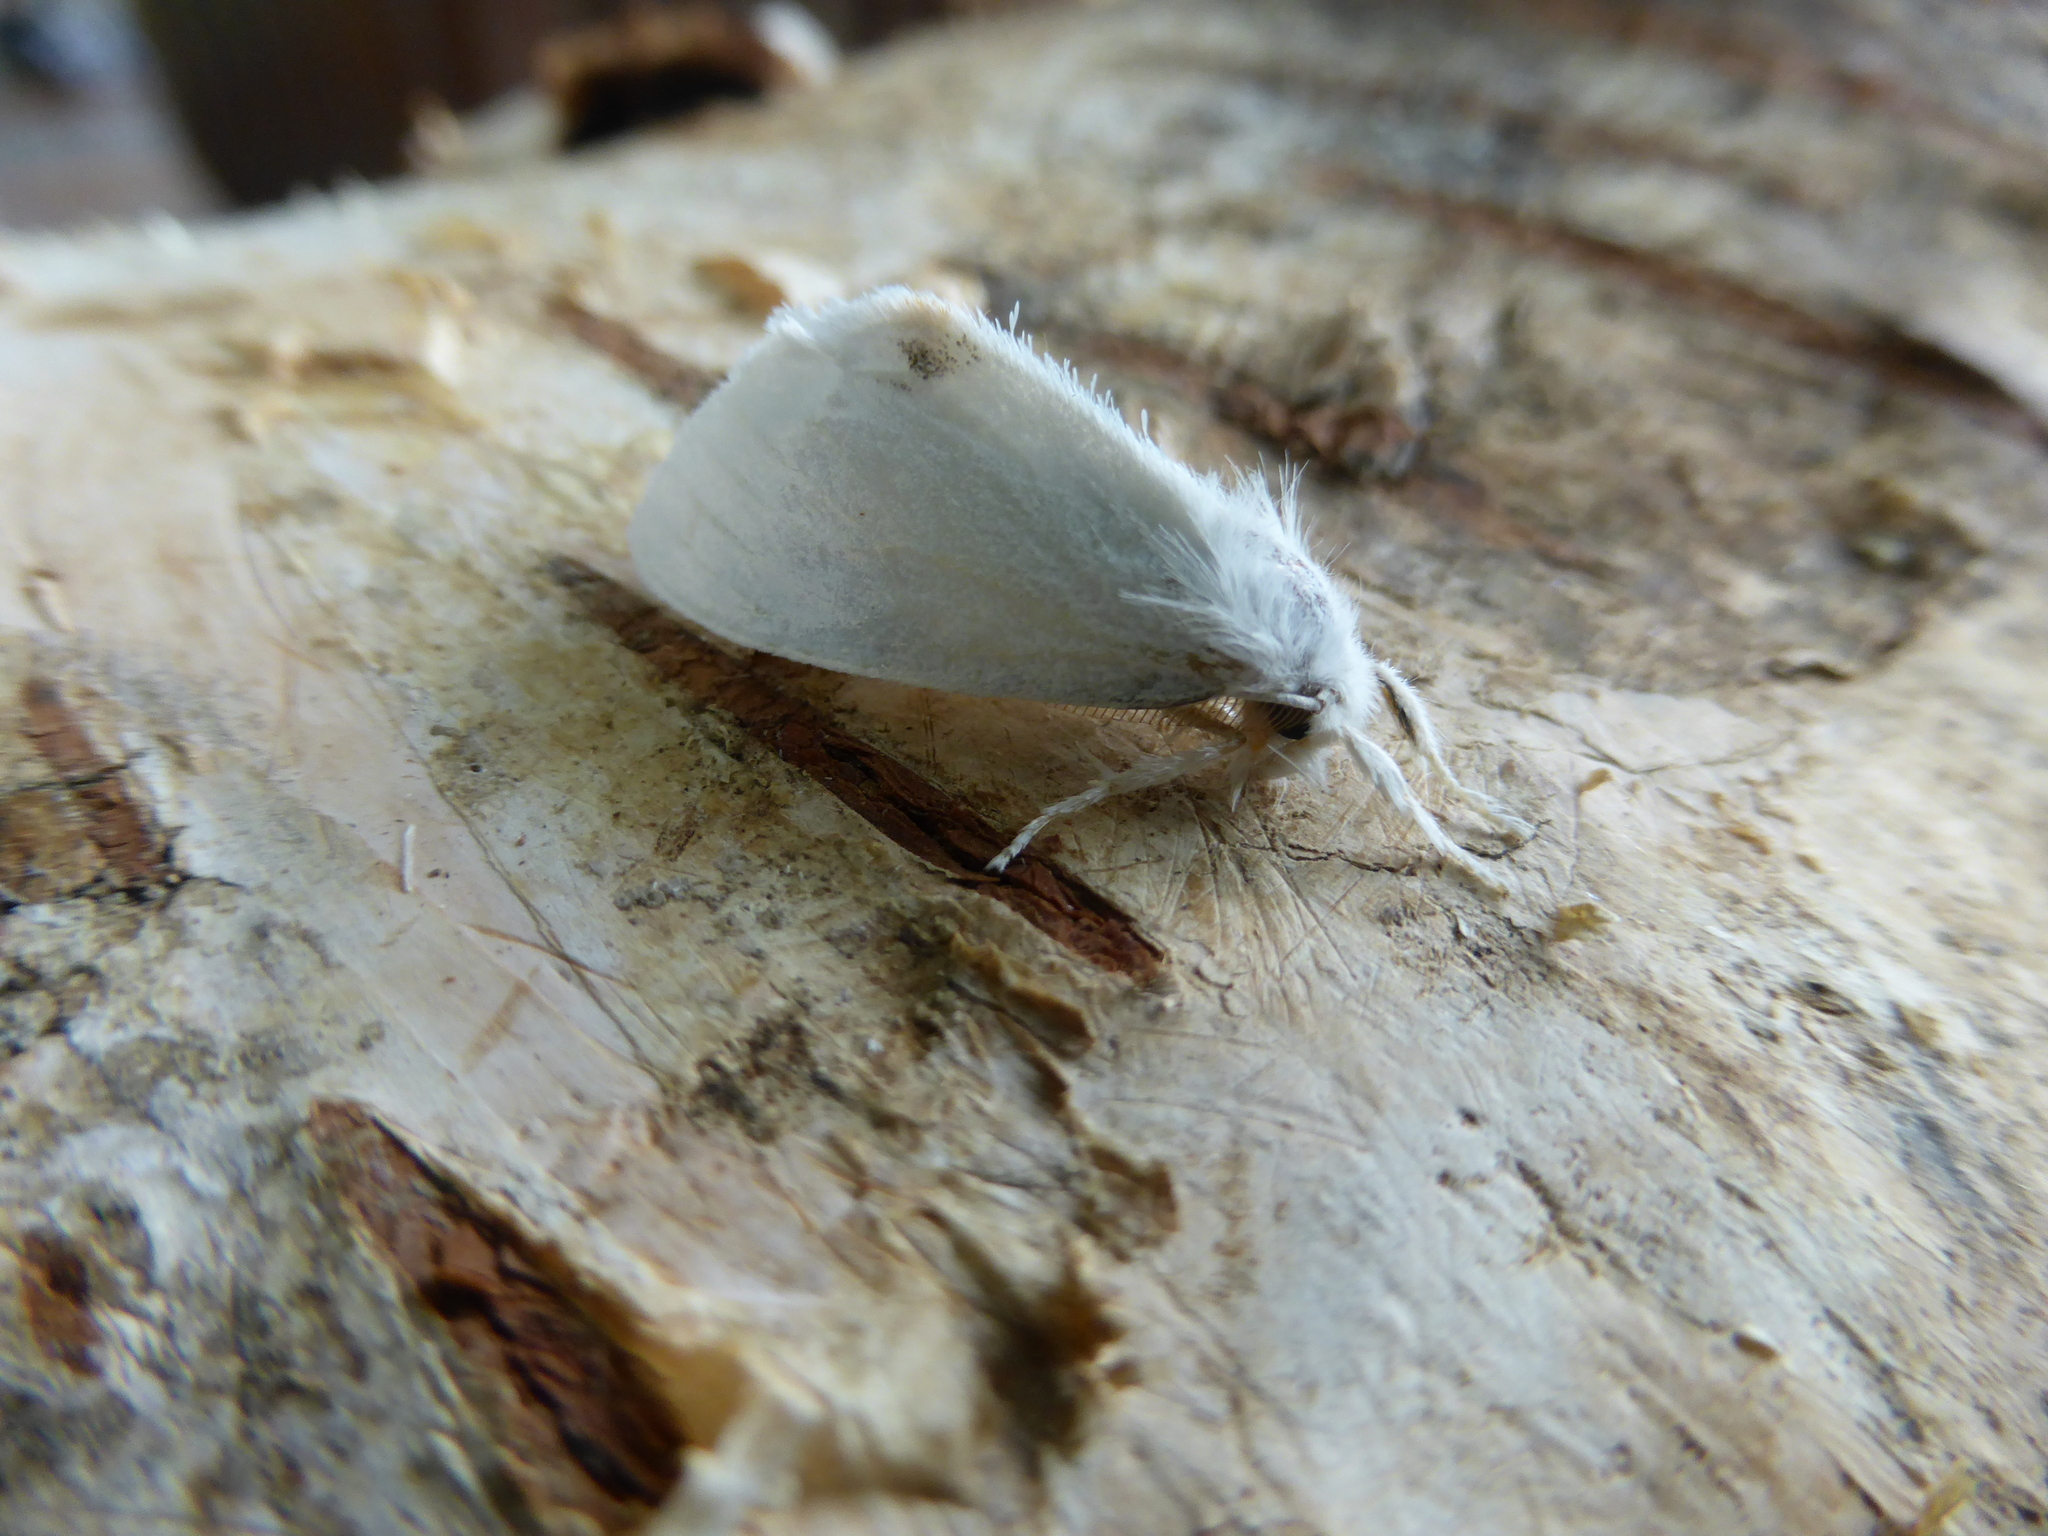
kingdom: Animalia
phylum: Arthropoda
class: Insecta
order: Lepidoptera
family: Erebidae
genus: Sphrageidus
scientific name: Sphrageidus similis
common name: Yellow-tail
